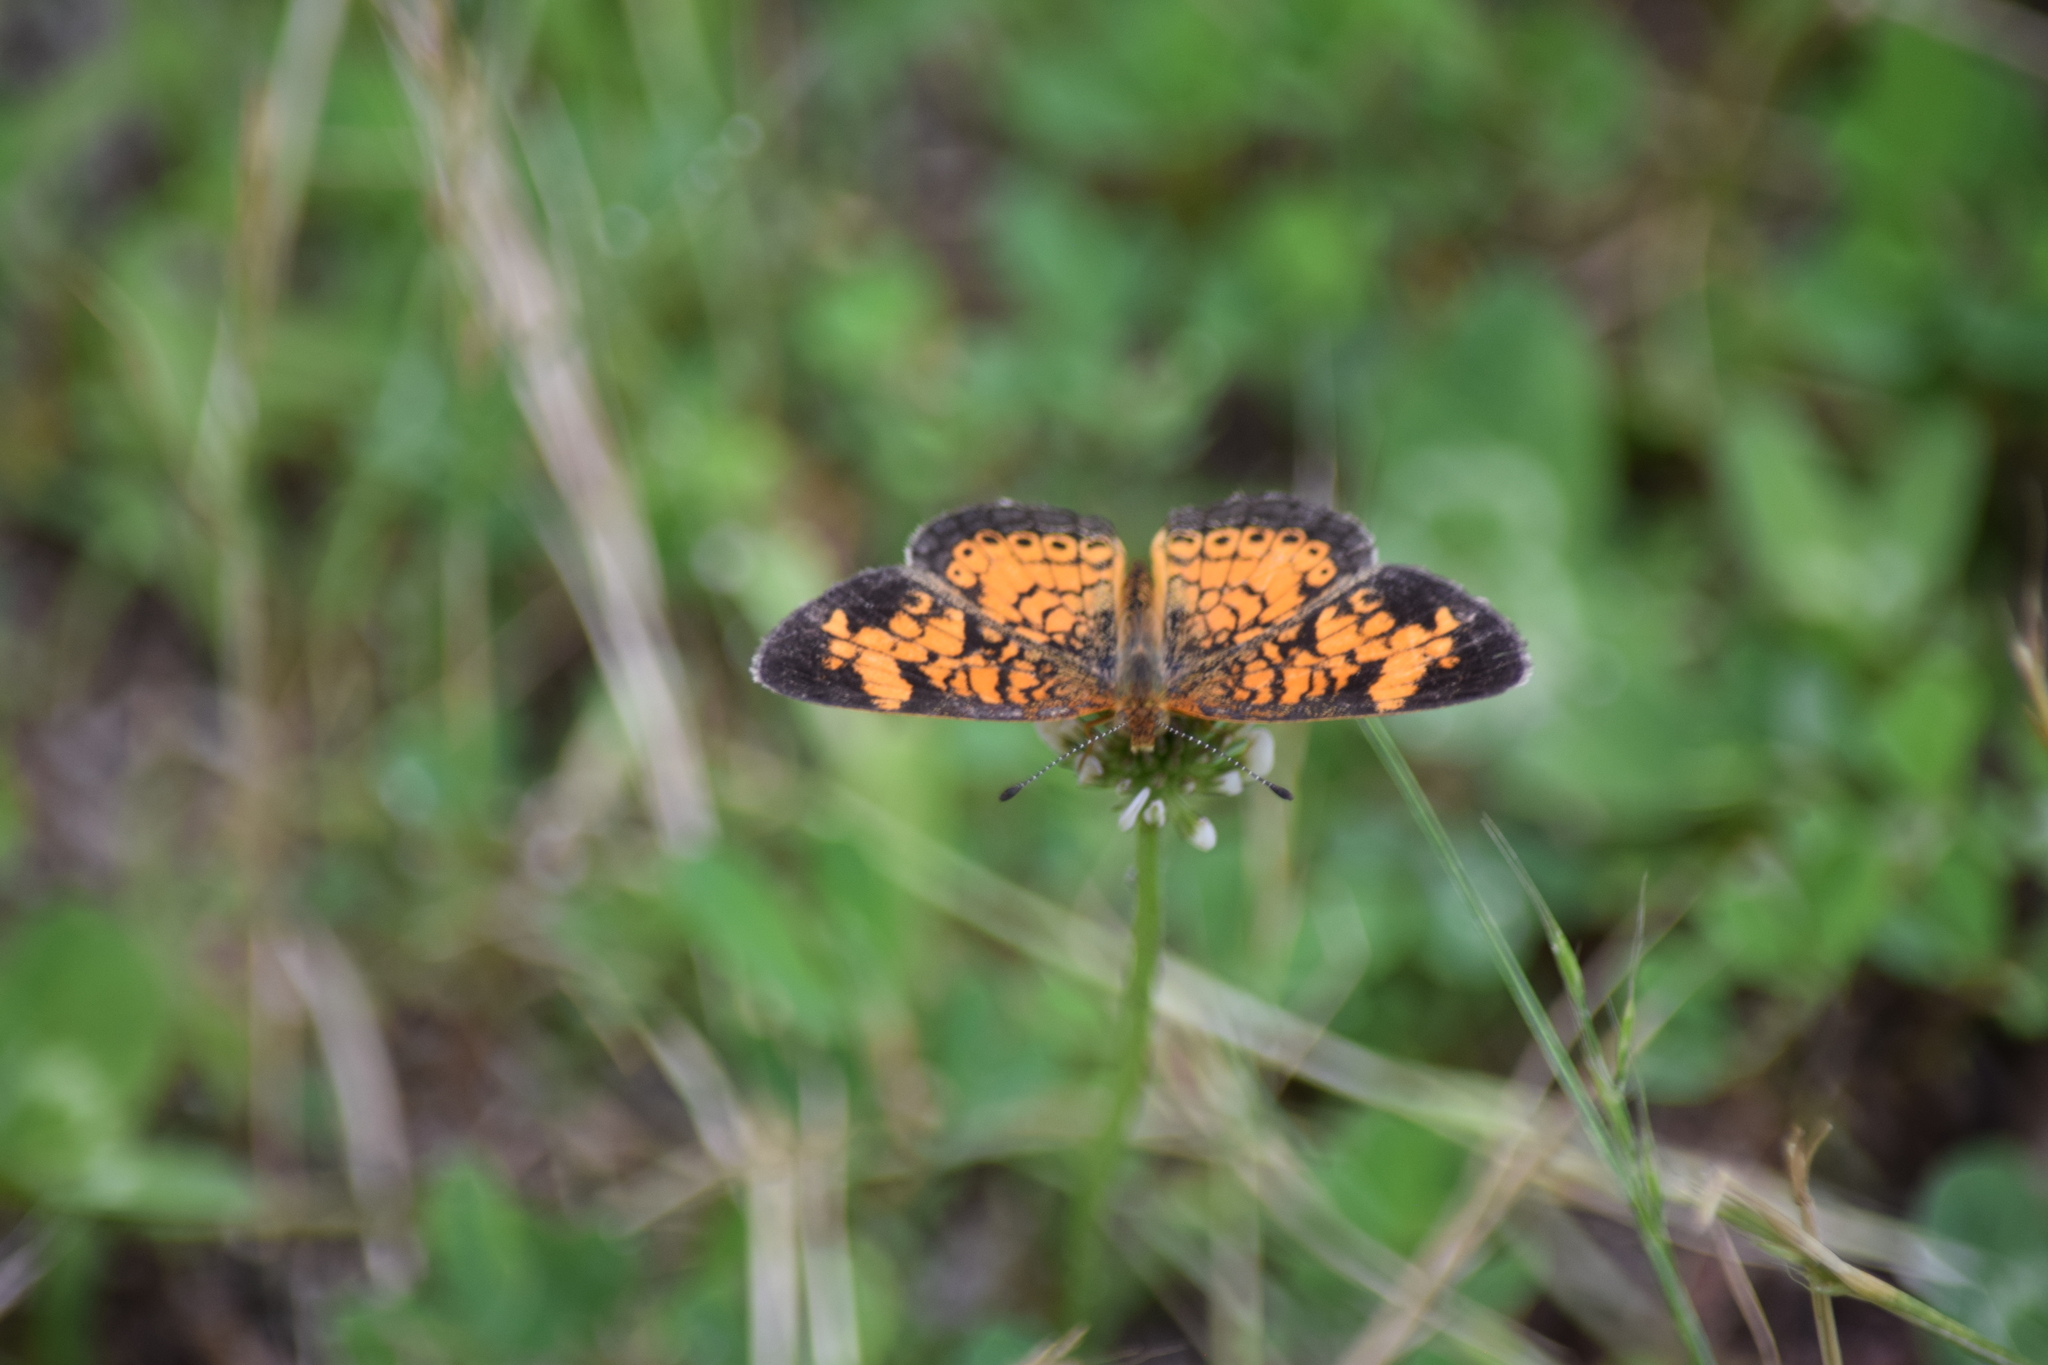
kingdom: Animalia
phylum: Arthropoda
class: Insecta
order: Lepidoptera
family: Nymphalidae
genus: Phyciodes
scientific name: Phyciodes tharos
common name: Pearl crescent
